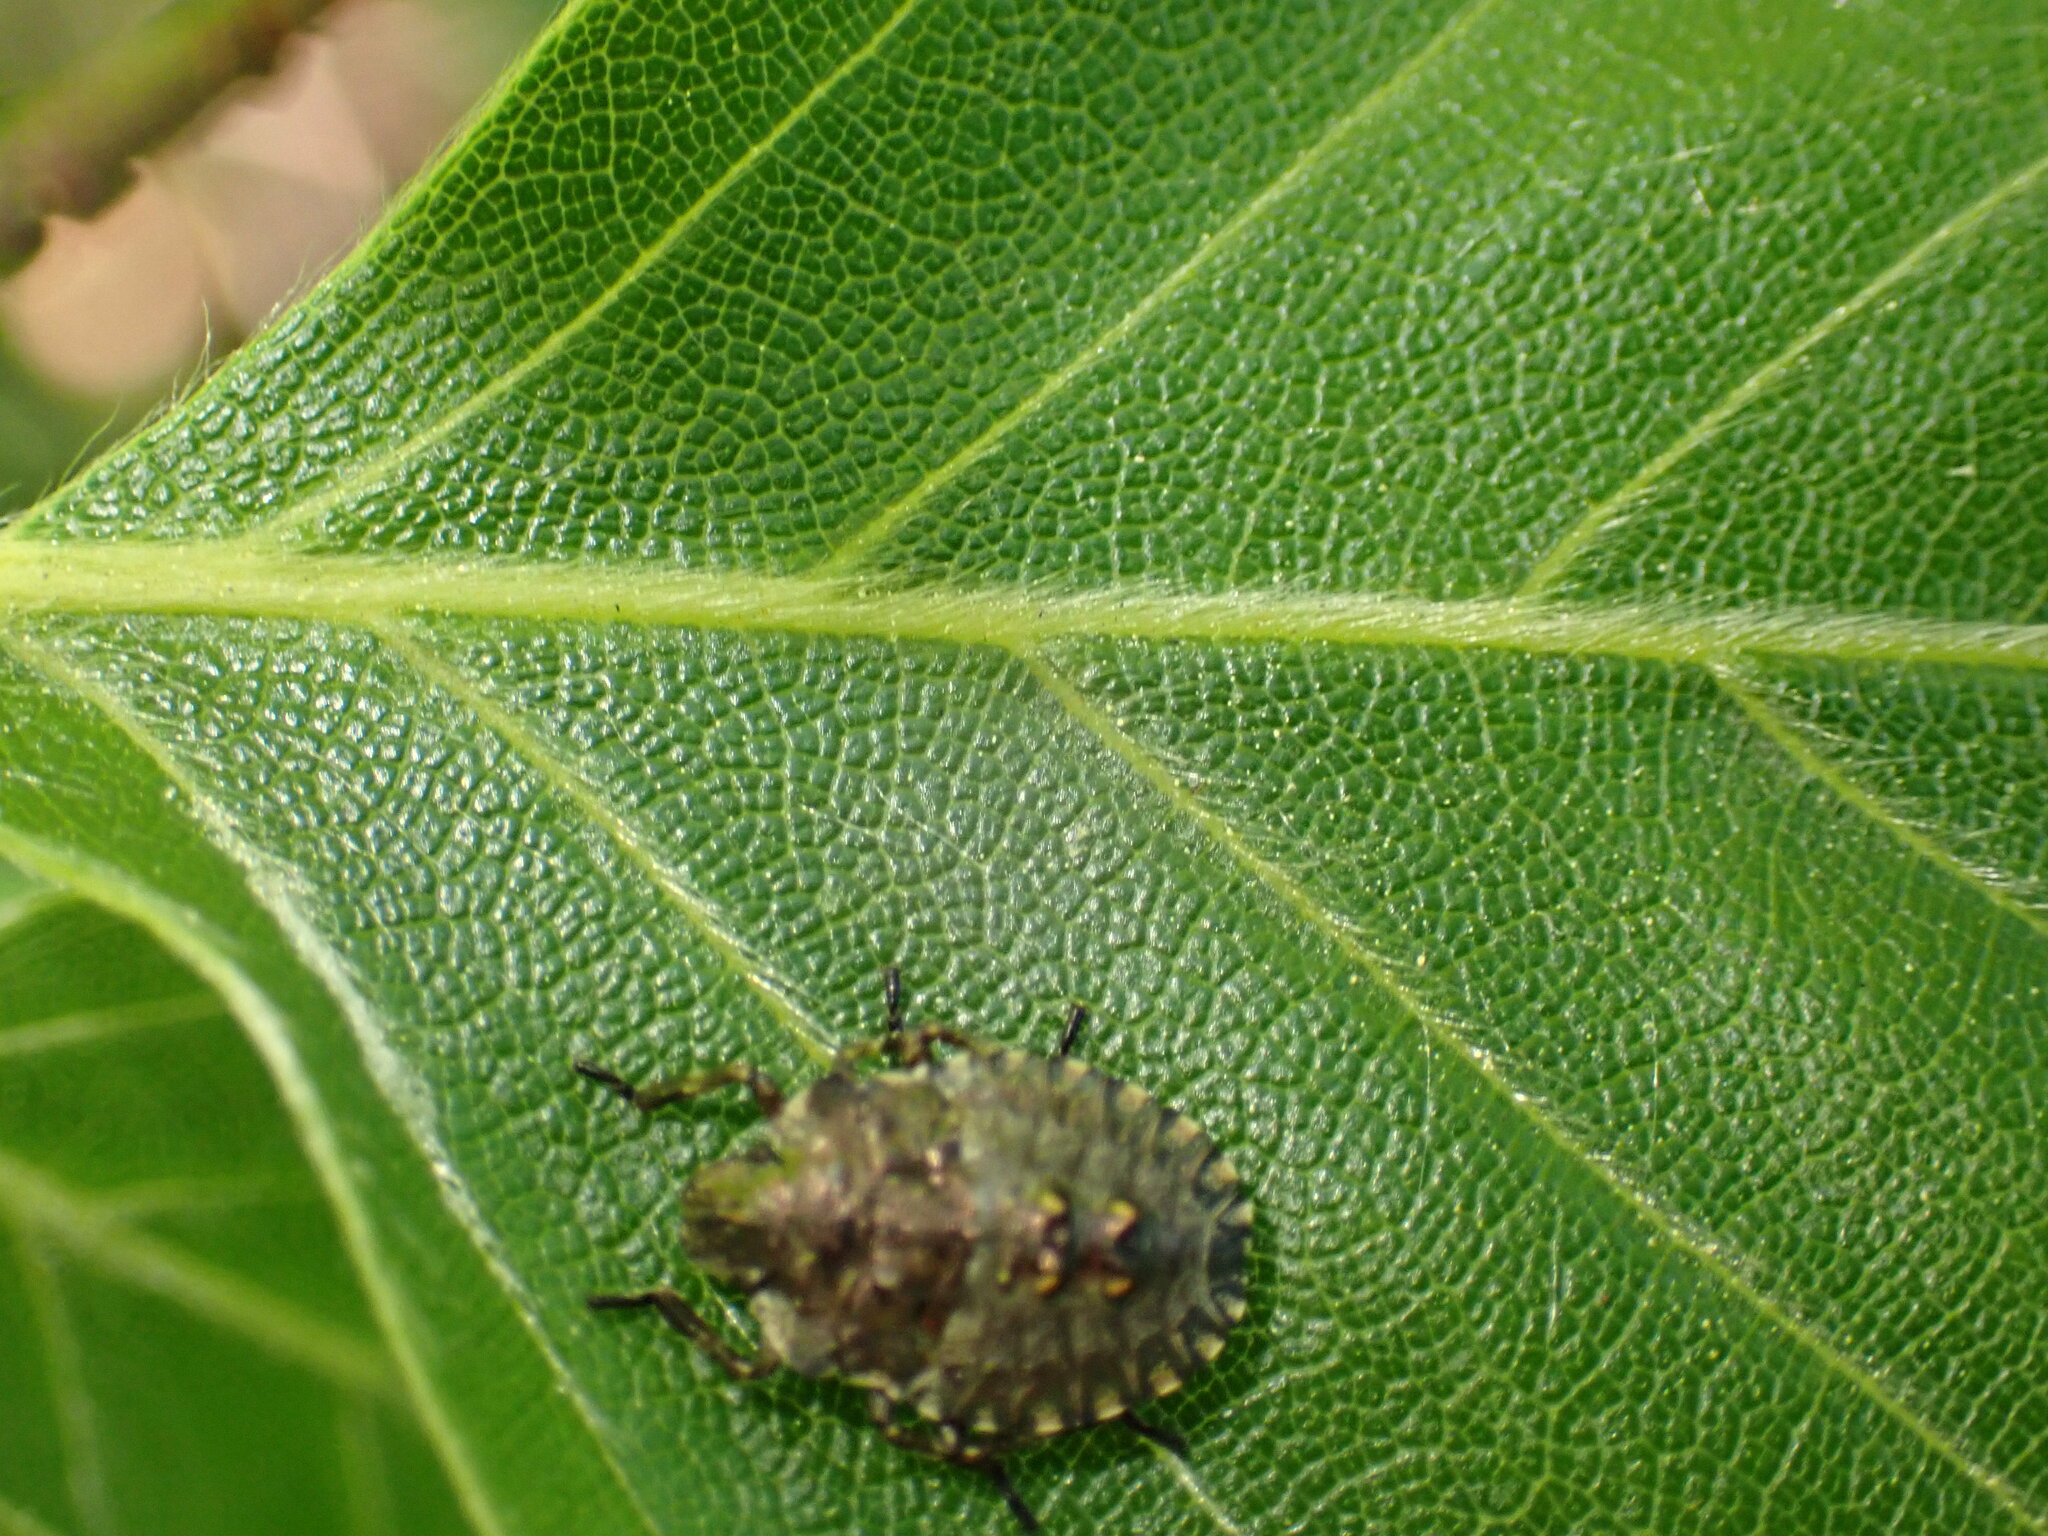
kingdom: Animalia
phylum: Arthropoda
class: Insecta
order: Hemiptera
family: Pentatomidae
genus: Pentatoma
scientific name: Pentatoma rufipes
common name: Forest bug
